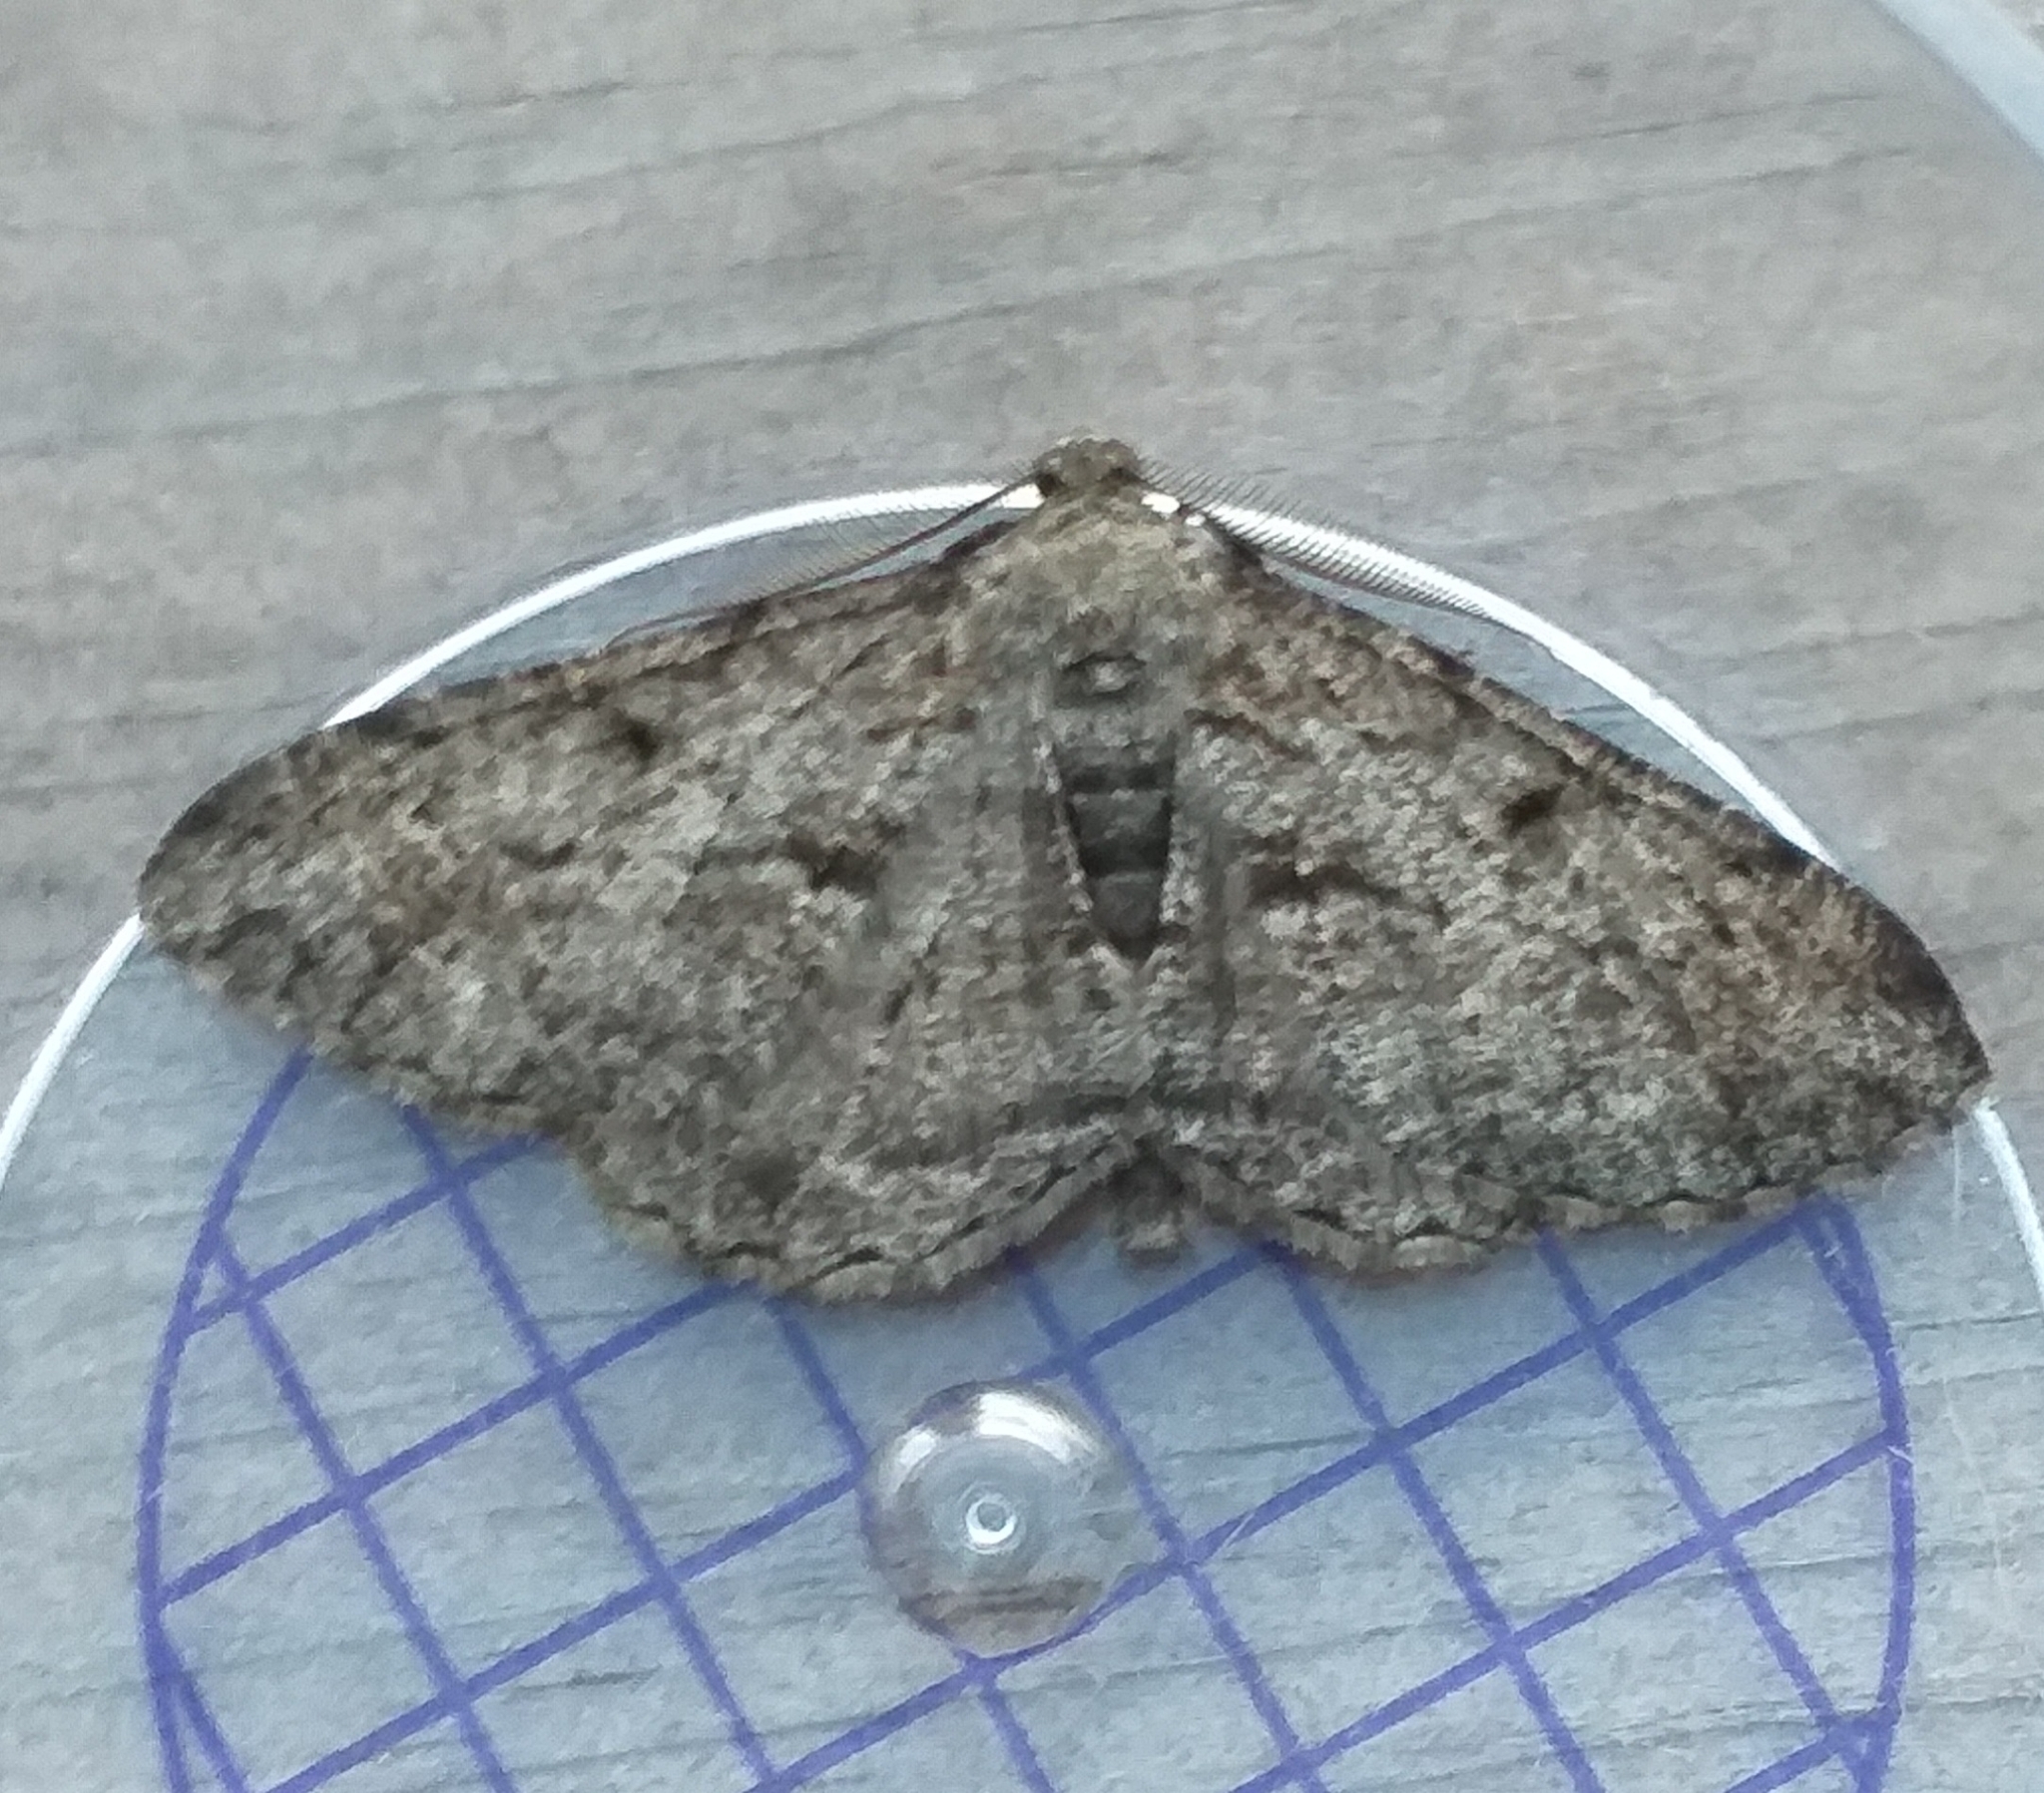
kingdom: Animalia
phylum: Arthropoda
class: Insecta
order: Lepidoptera
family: Geometridae
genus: Peribatodes
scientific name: Peribatodes rhomboidaria
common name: Willow beauty
